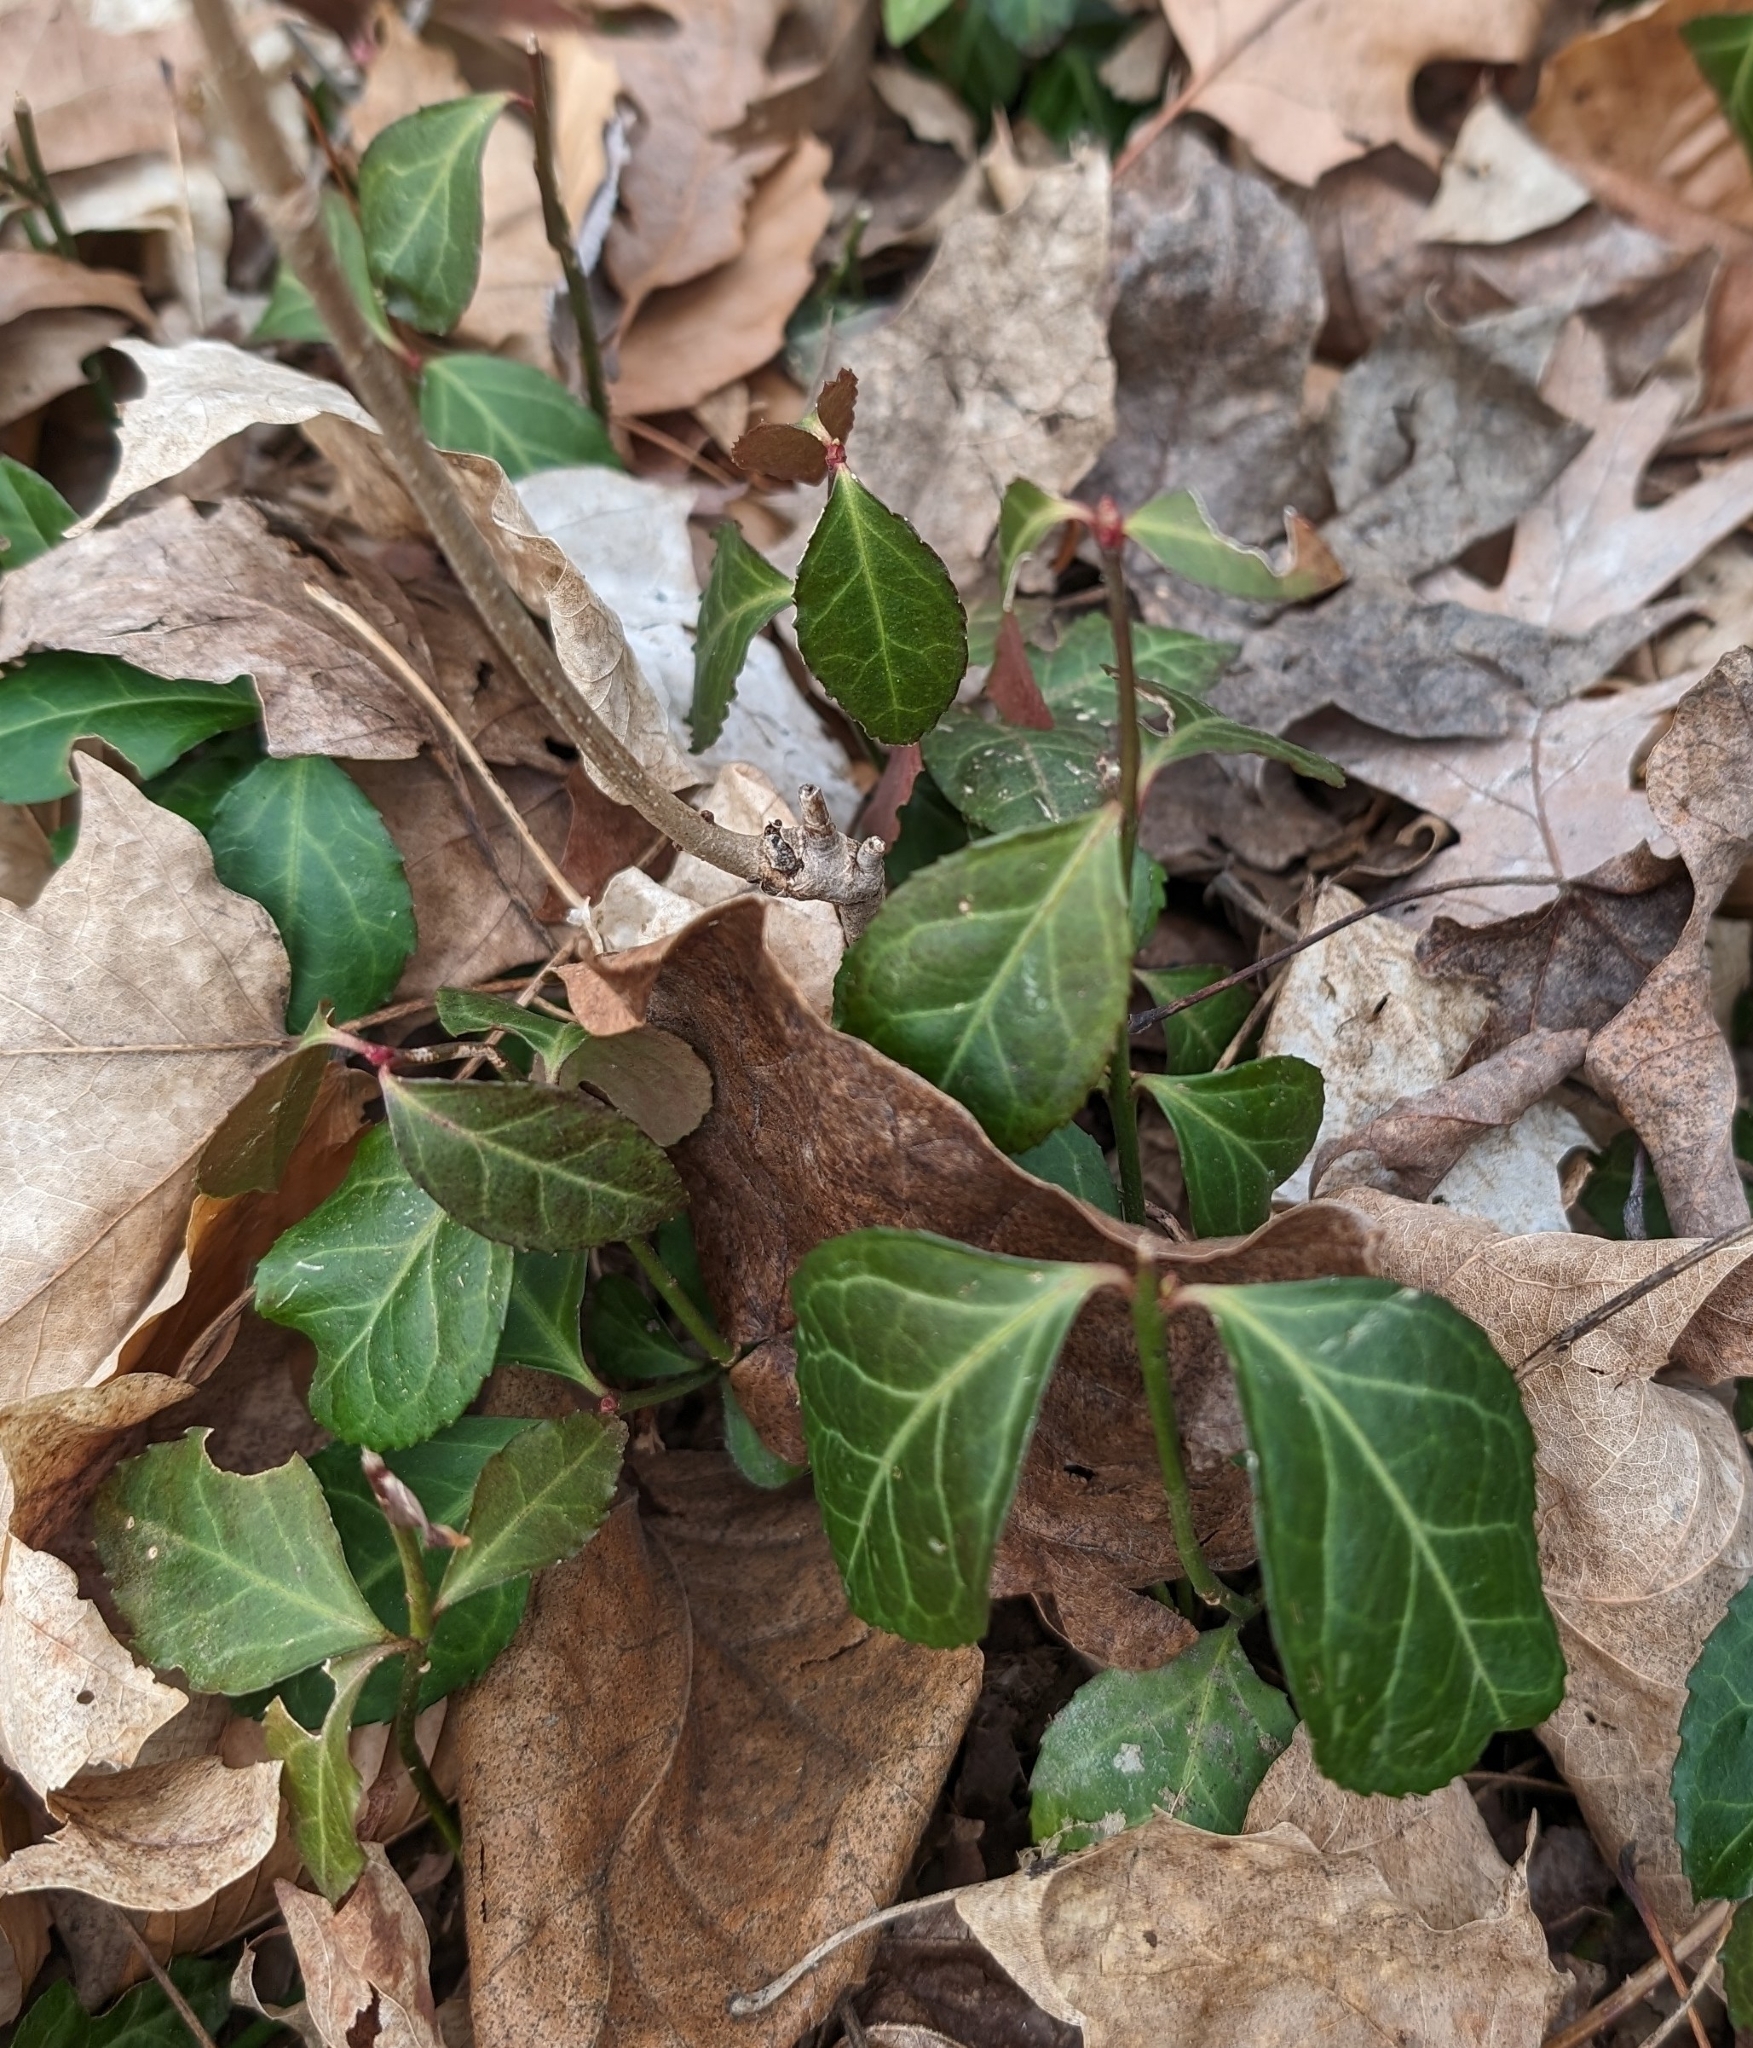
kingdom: Plantae
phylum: Tracheophyta
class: Magnoliopsida
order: Celastrales
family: Celastraceae
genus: Euonymus
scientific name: Euonymus fortunei
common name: Climbing euonymus
